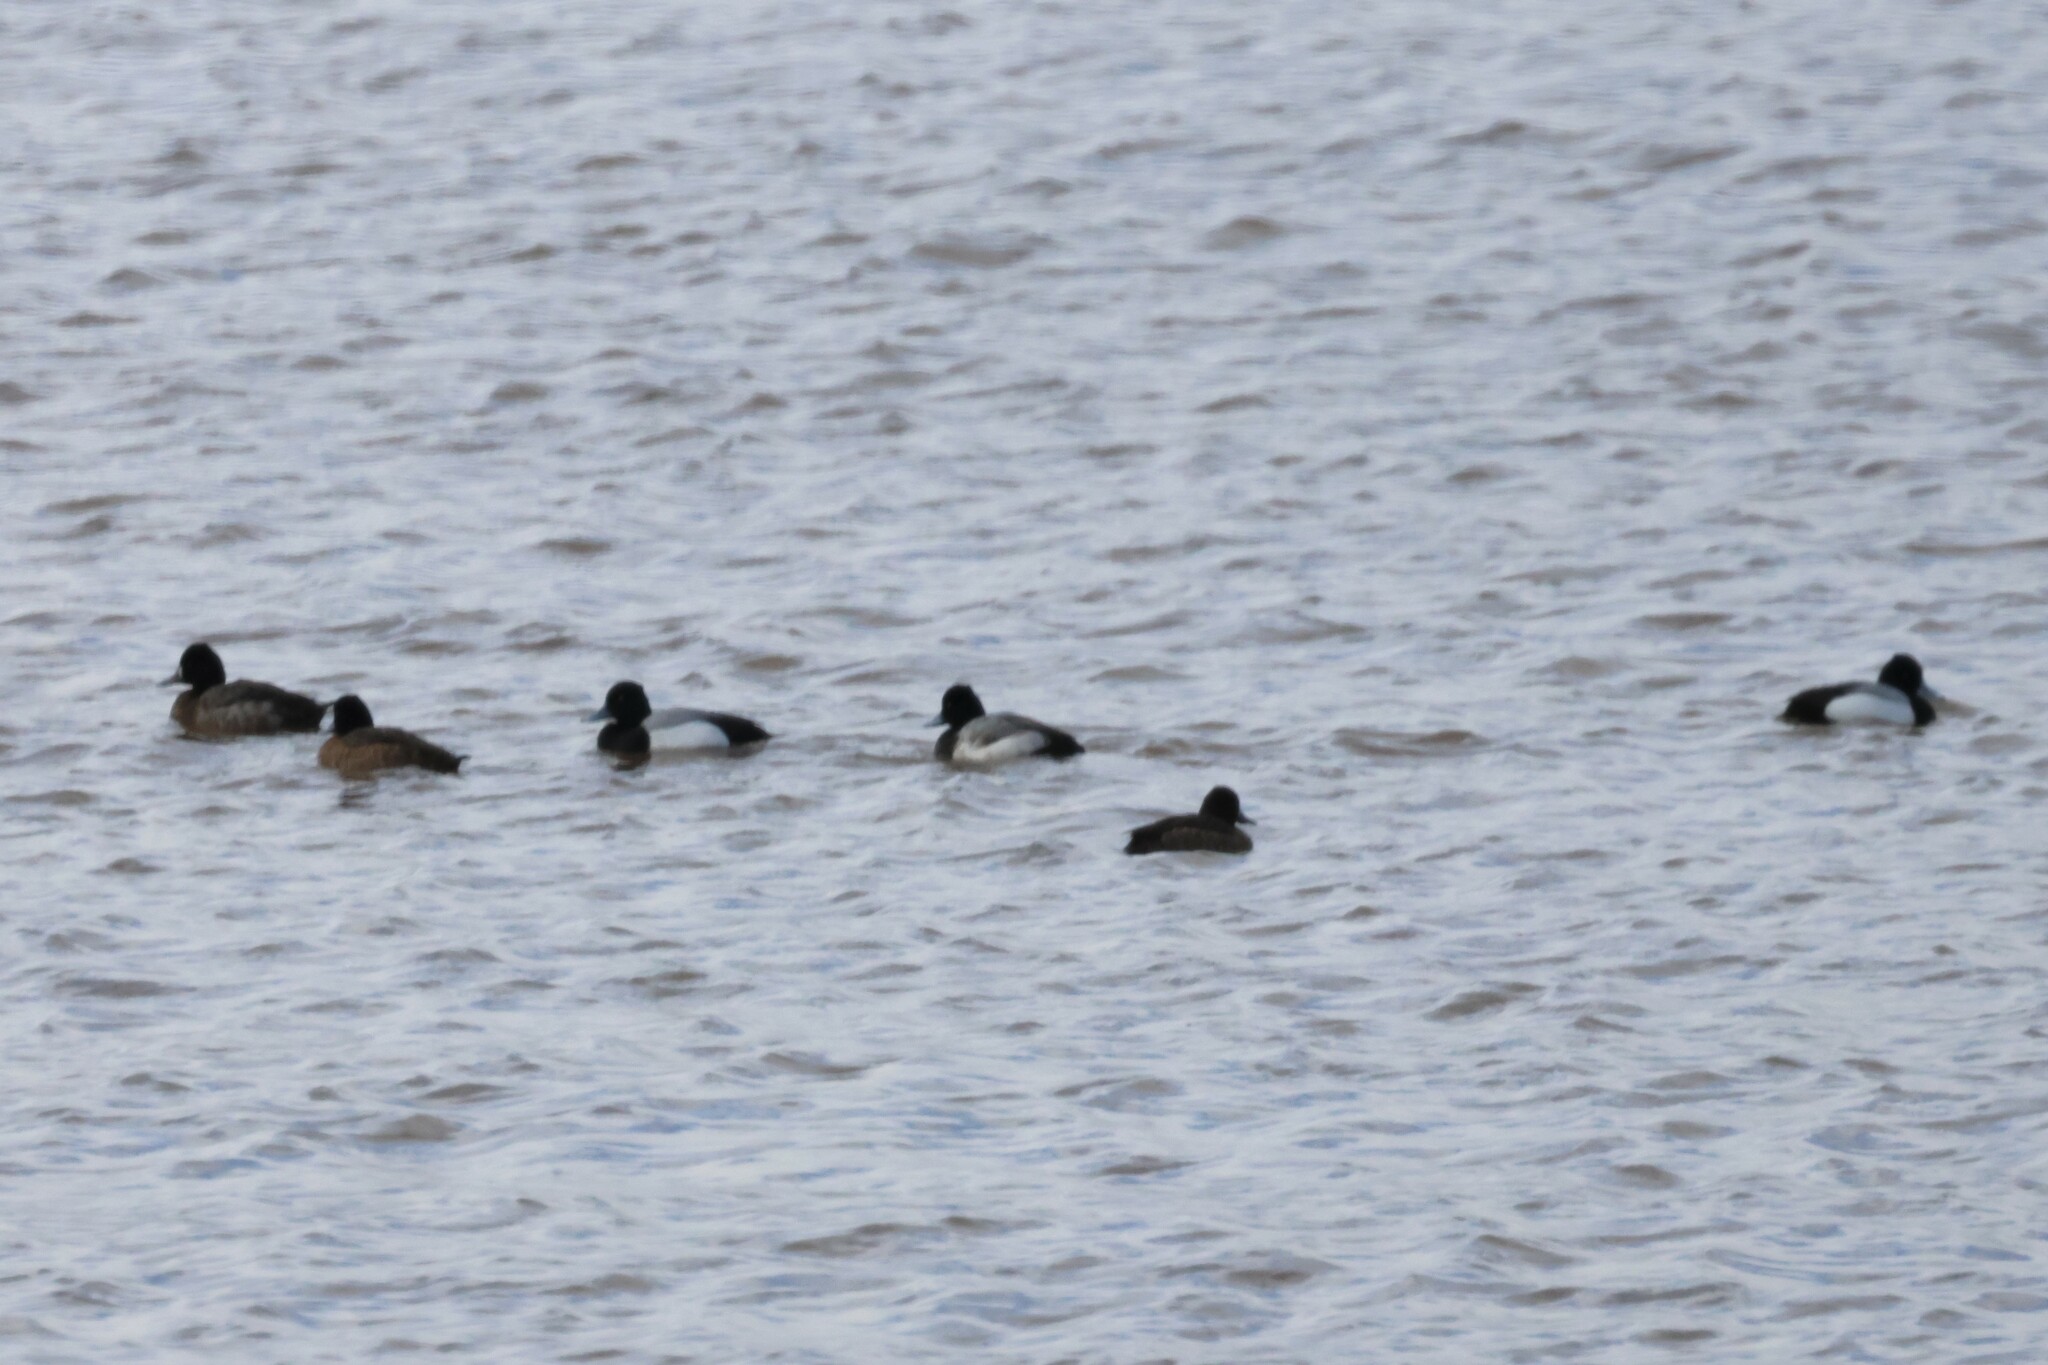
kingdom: Animalia
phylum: Chordata
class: Aves
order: Anseriformes
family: Anatidae
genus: Aythya
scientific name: Aythya affinis
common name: Lesser scaup
